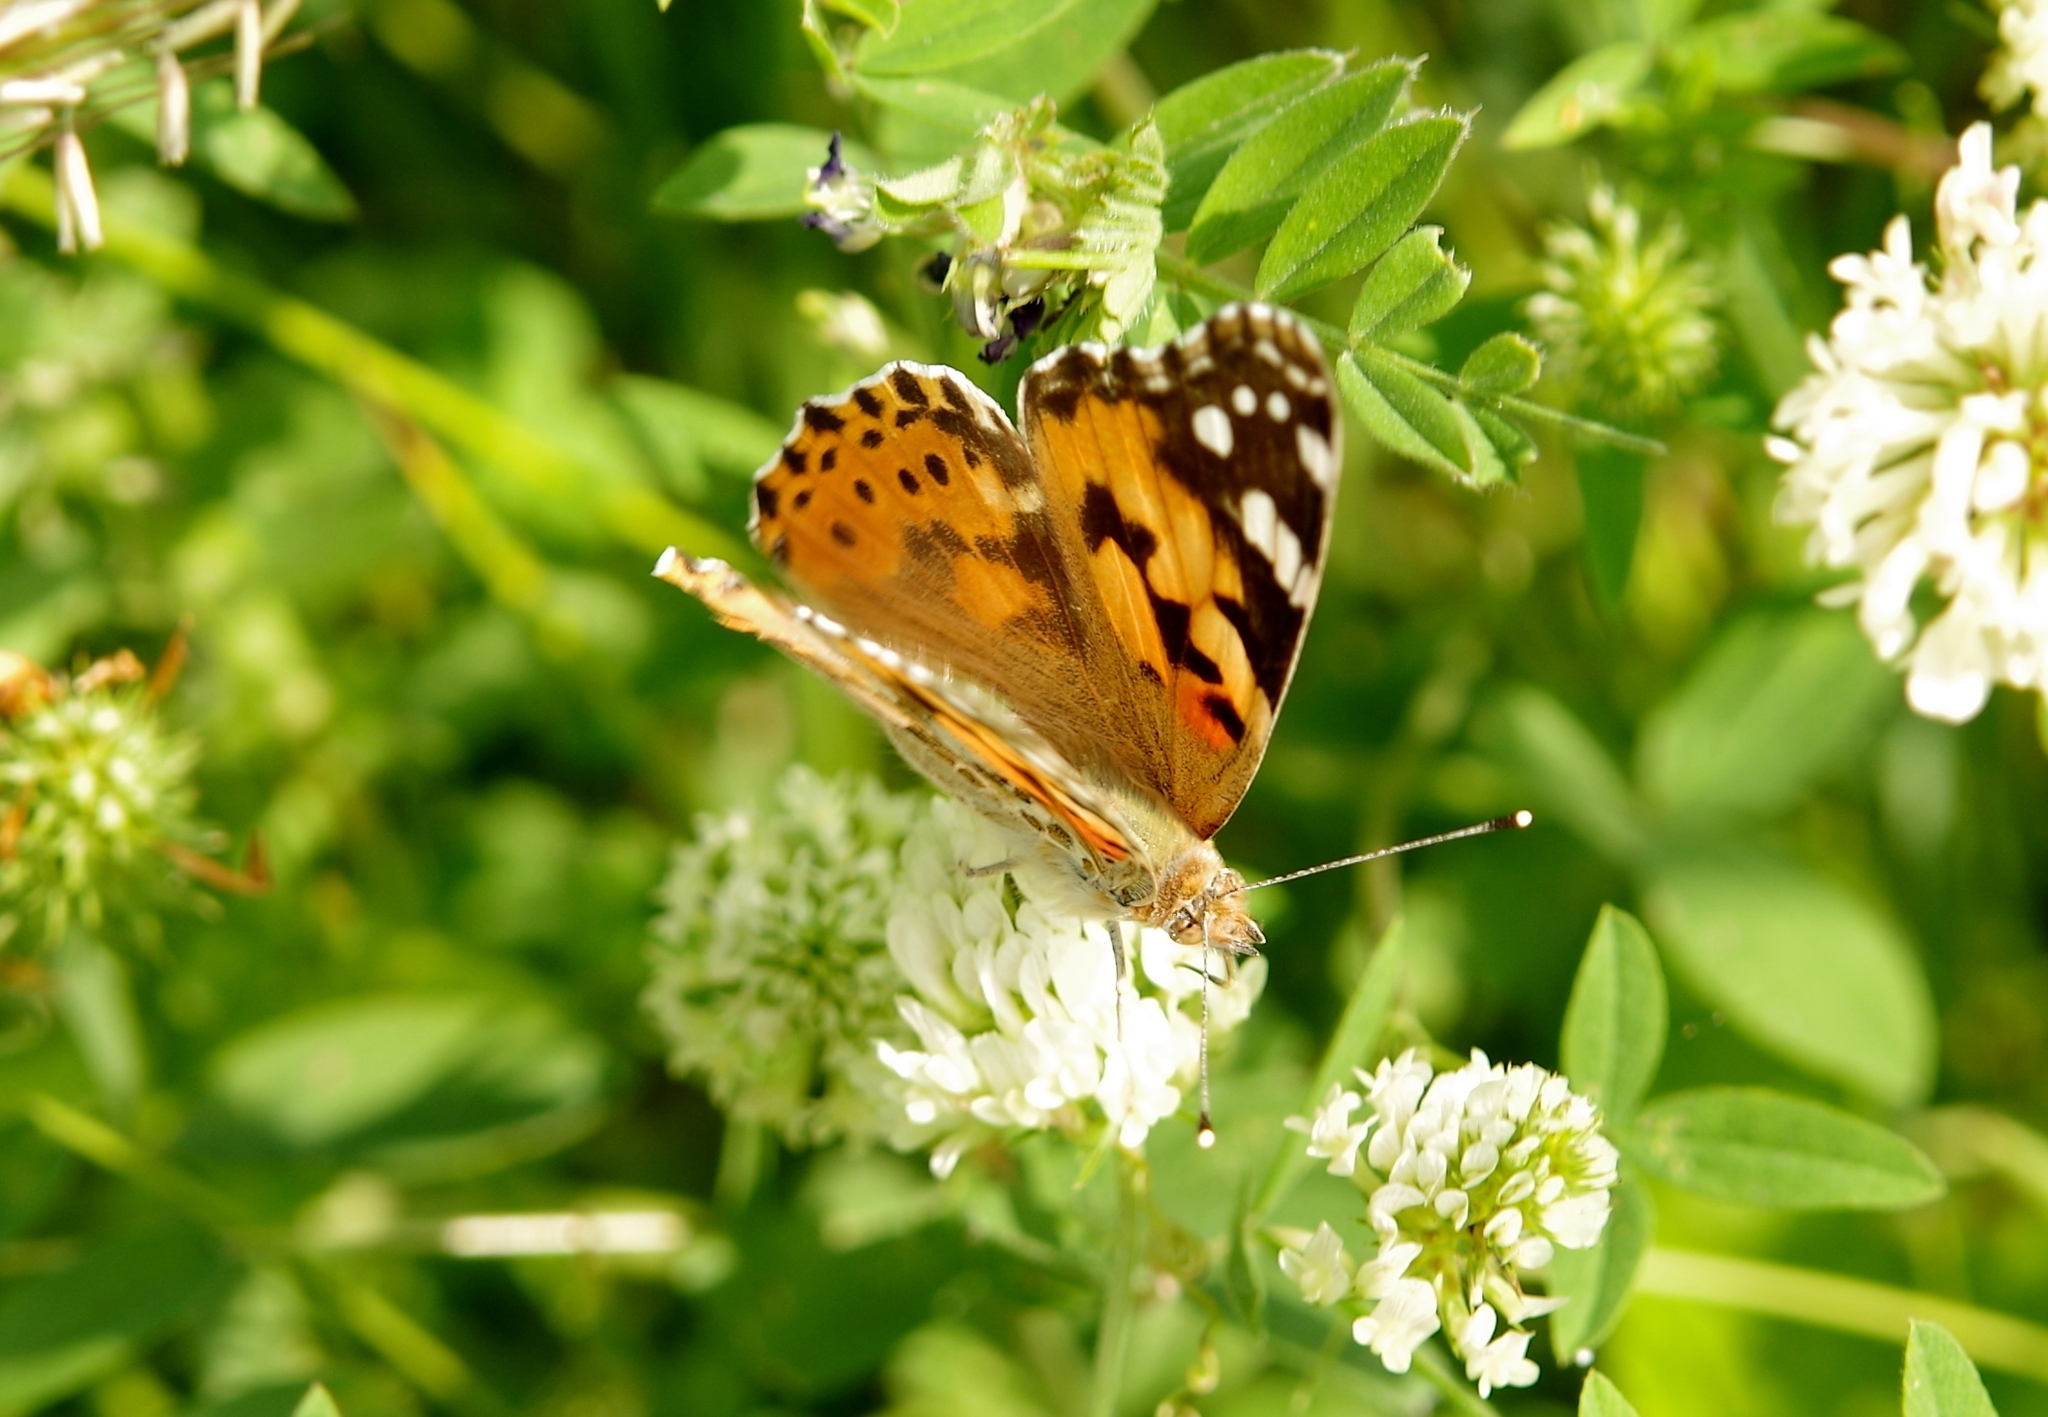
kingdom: Animalia
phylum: Arthropoda
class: Insecta
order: Lepidoptera
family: Nymphalidae
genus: Vanessa
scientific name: Vanessa cardui
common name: Painted lady
